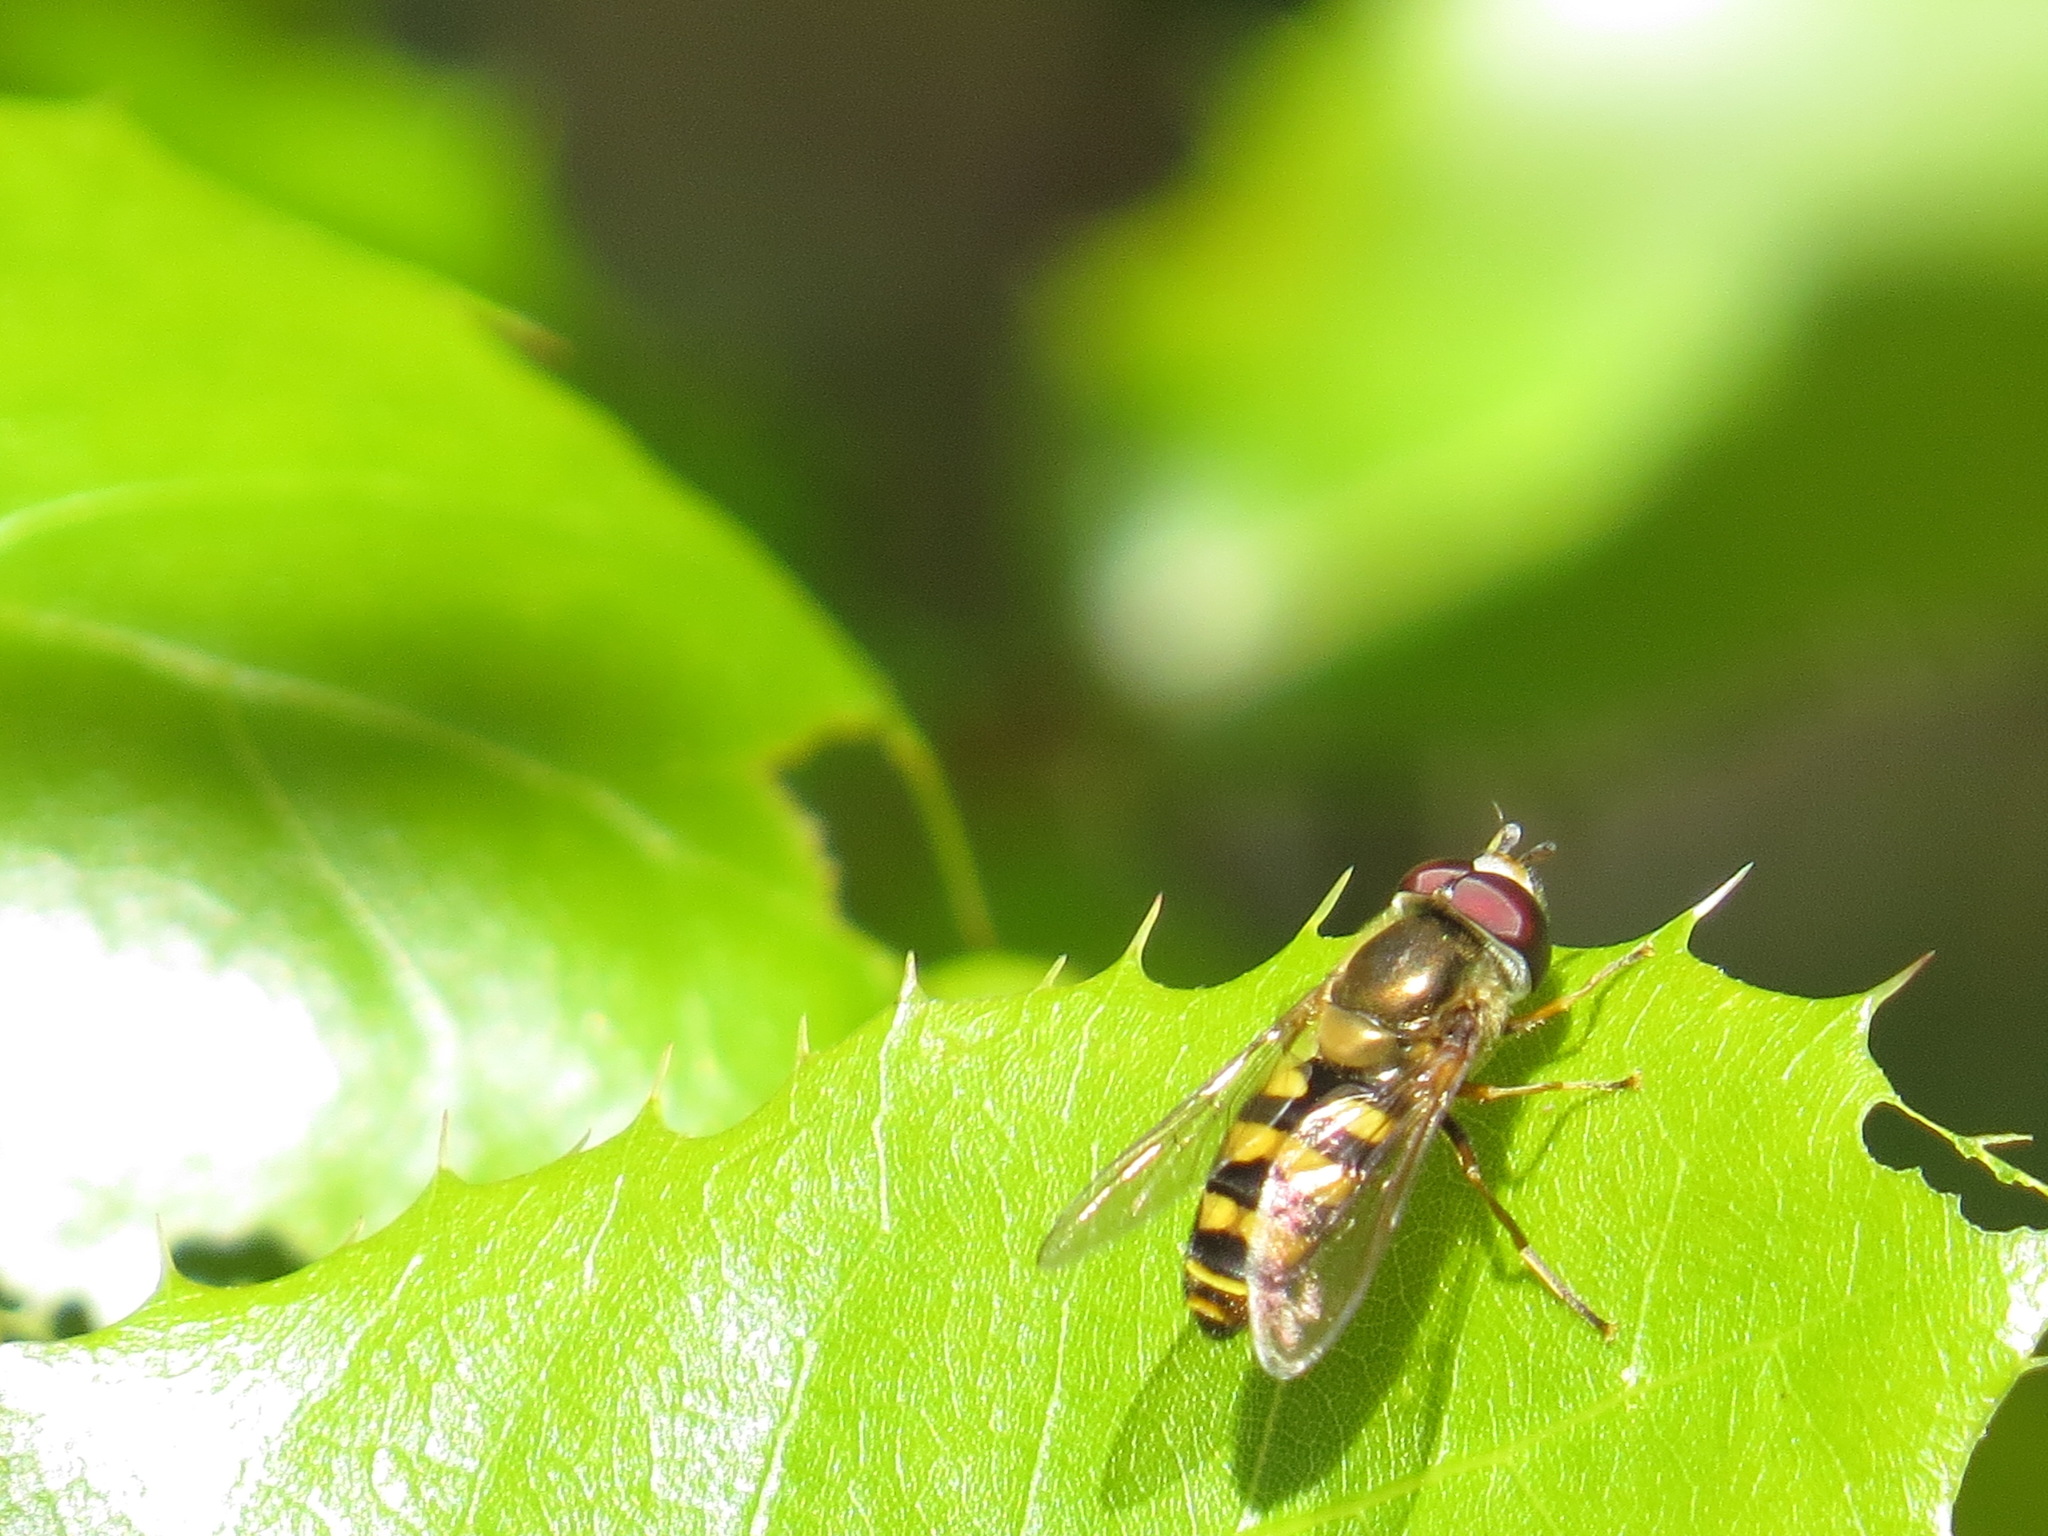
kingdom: Animalia
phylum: Arthropoda
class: Insecta
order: Diptera
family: Syrphidae
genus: Eupeodes
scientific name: Eupeodes fumipennis
